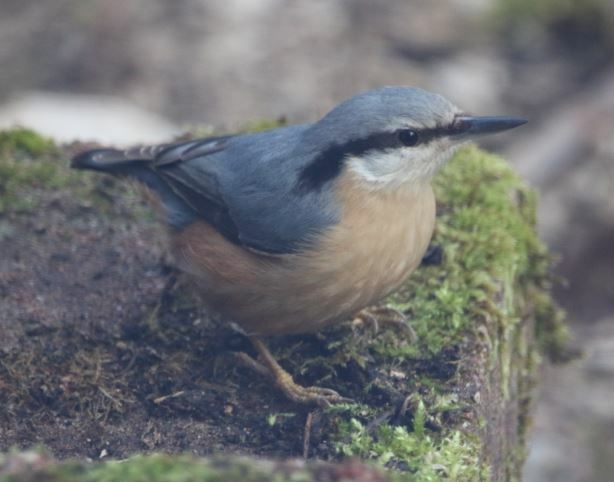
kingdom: Animalia
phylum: Chordata
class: Aves
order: Passeriformes
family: Sittidae
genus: Sitta
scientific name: Sitta europaea
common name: Eurasian nuthatch
